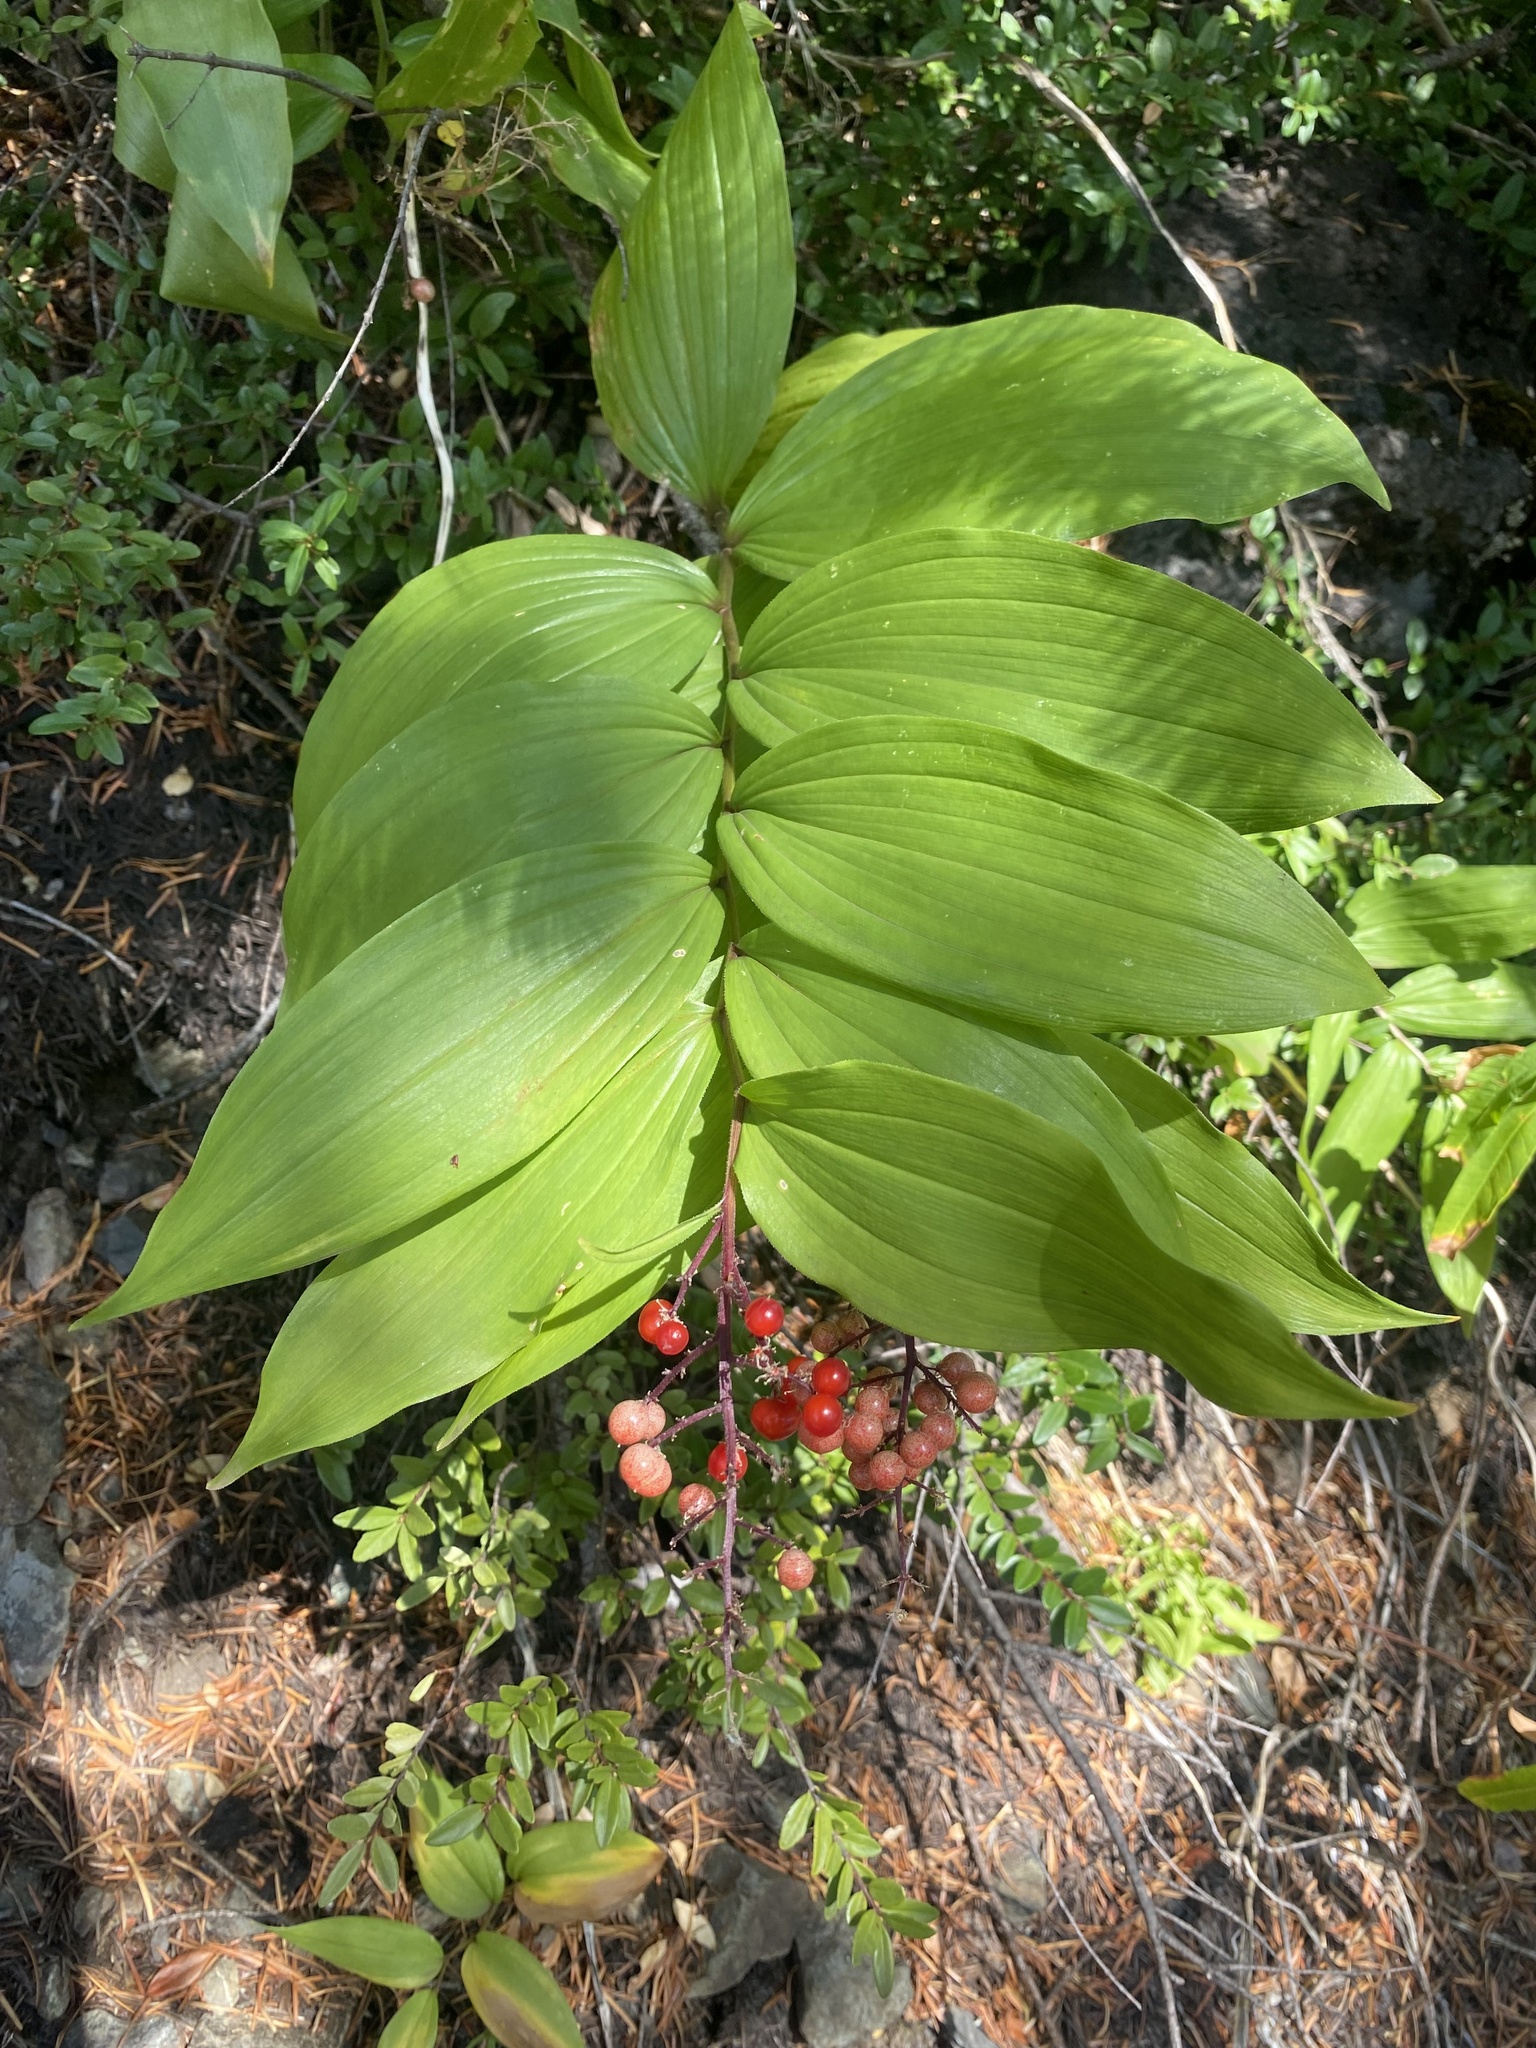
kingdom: Plantae
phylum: Tracheophyta
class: Liliopsida
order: Asparagales
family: Asparagaceae
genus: Maianthemum
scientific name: Maianthemum racemosum
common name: False spikenard
